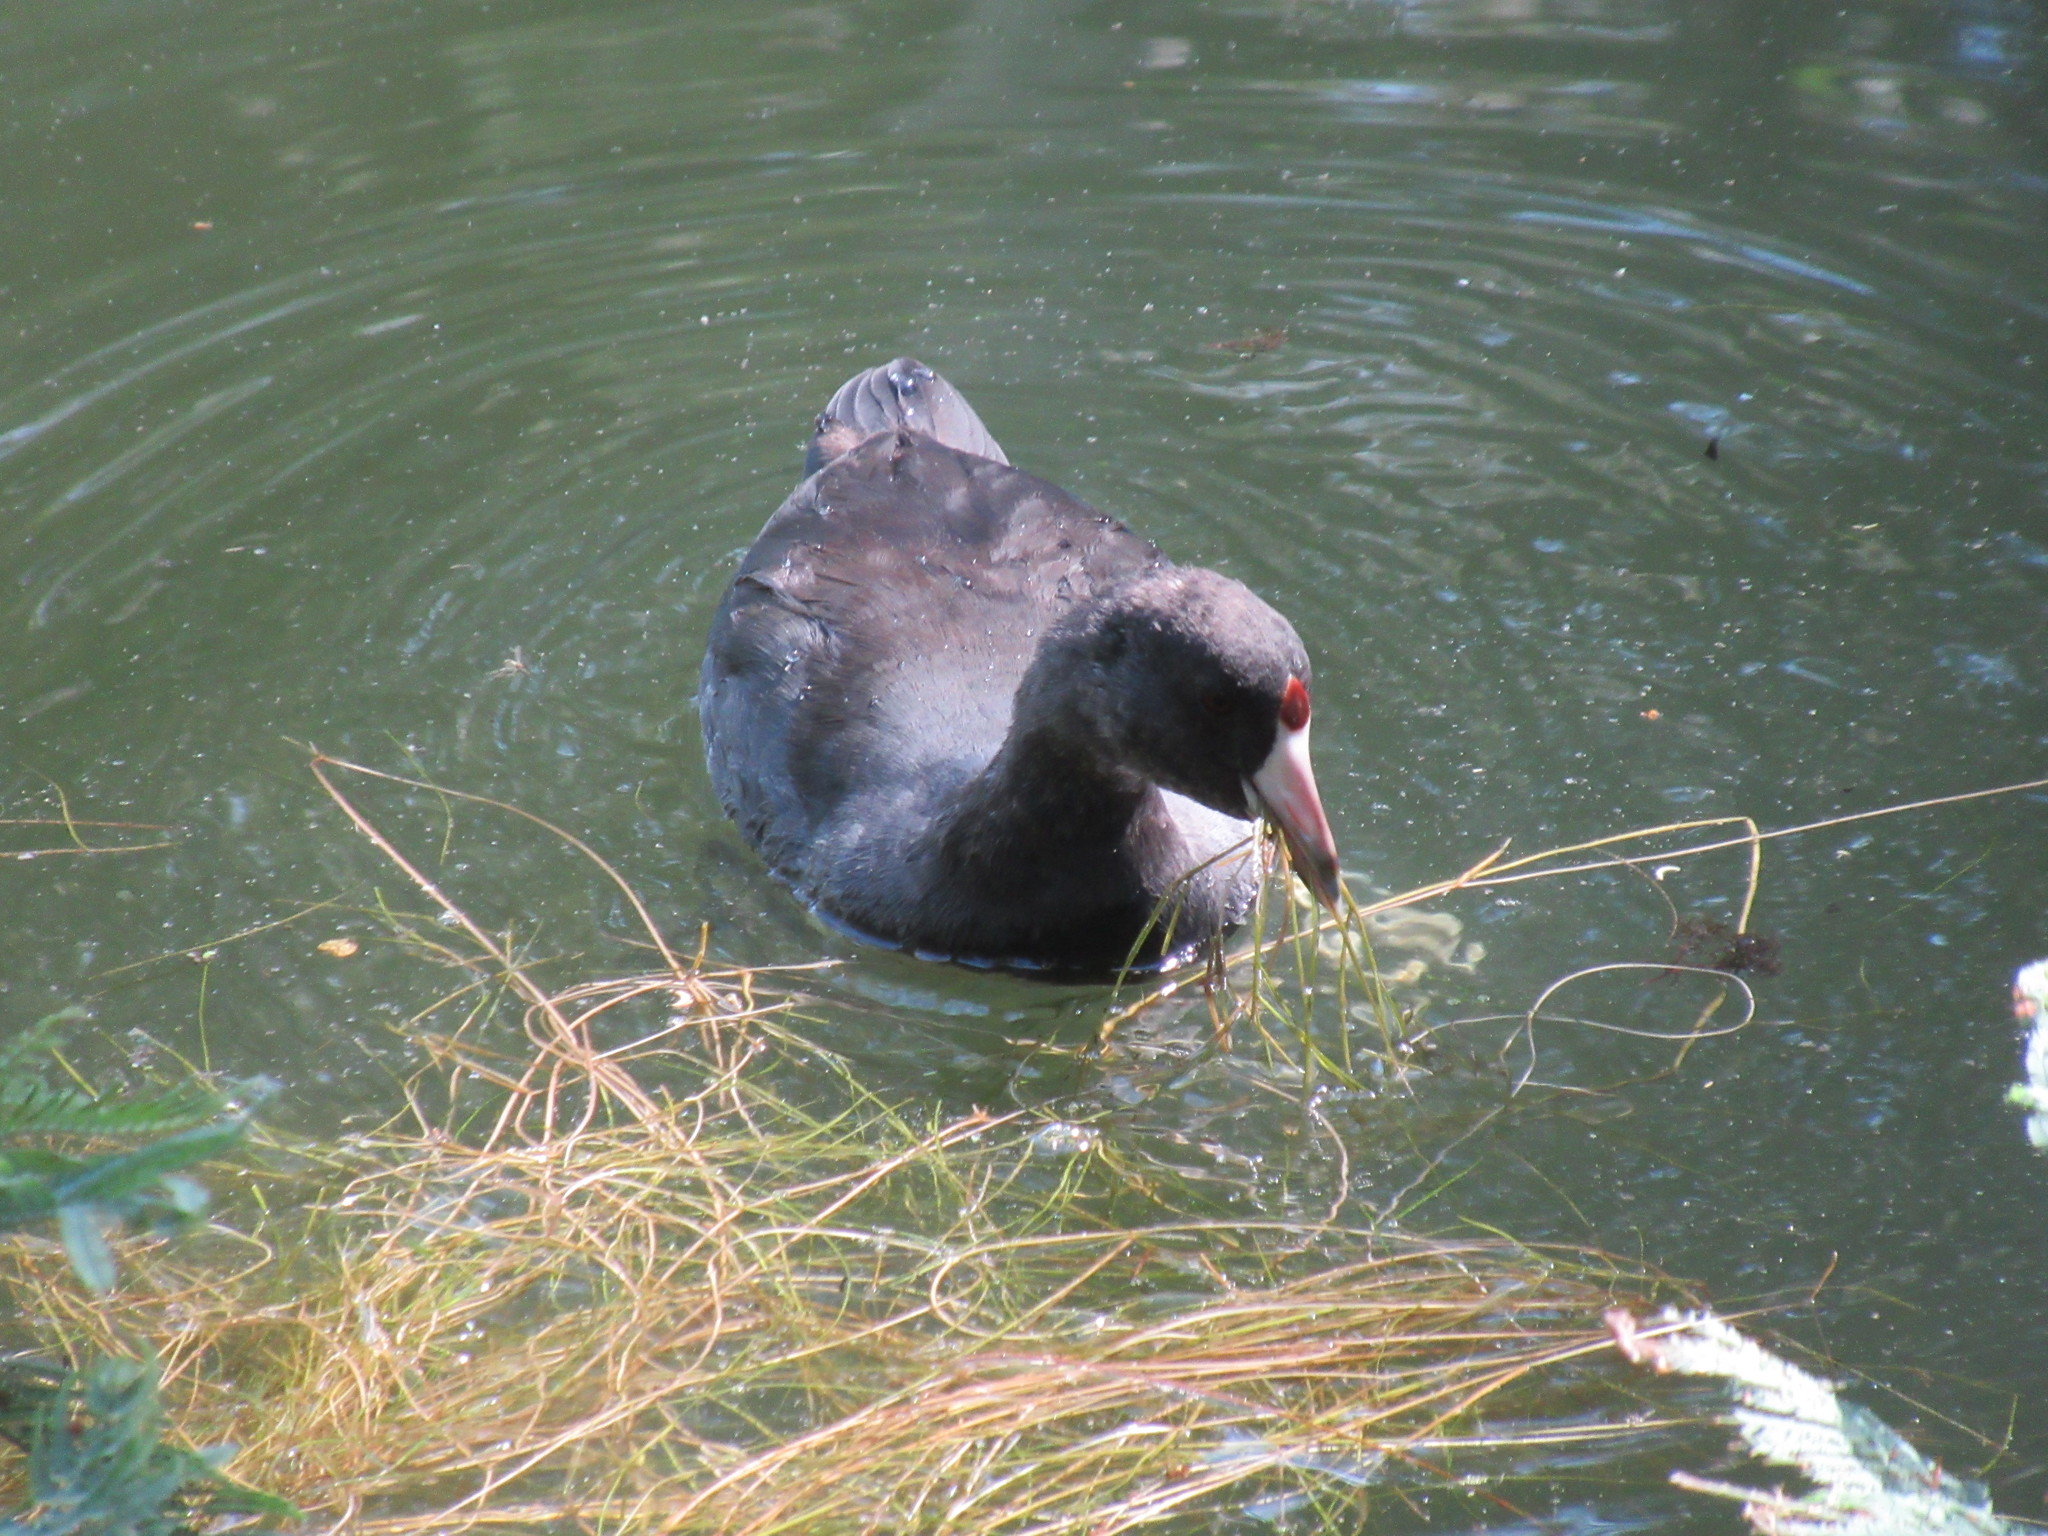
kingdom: Animalia
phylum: Chordata
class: Aves
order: Gruiformes
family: Rallidae
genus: Fulica
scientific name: Fulica americana
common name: American coot
